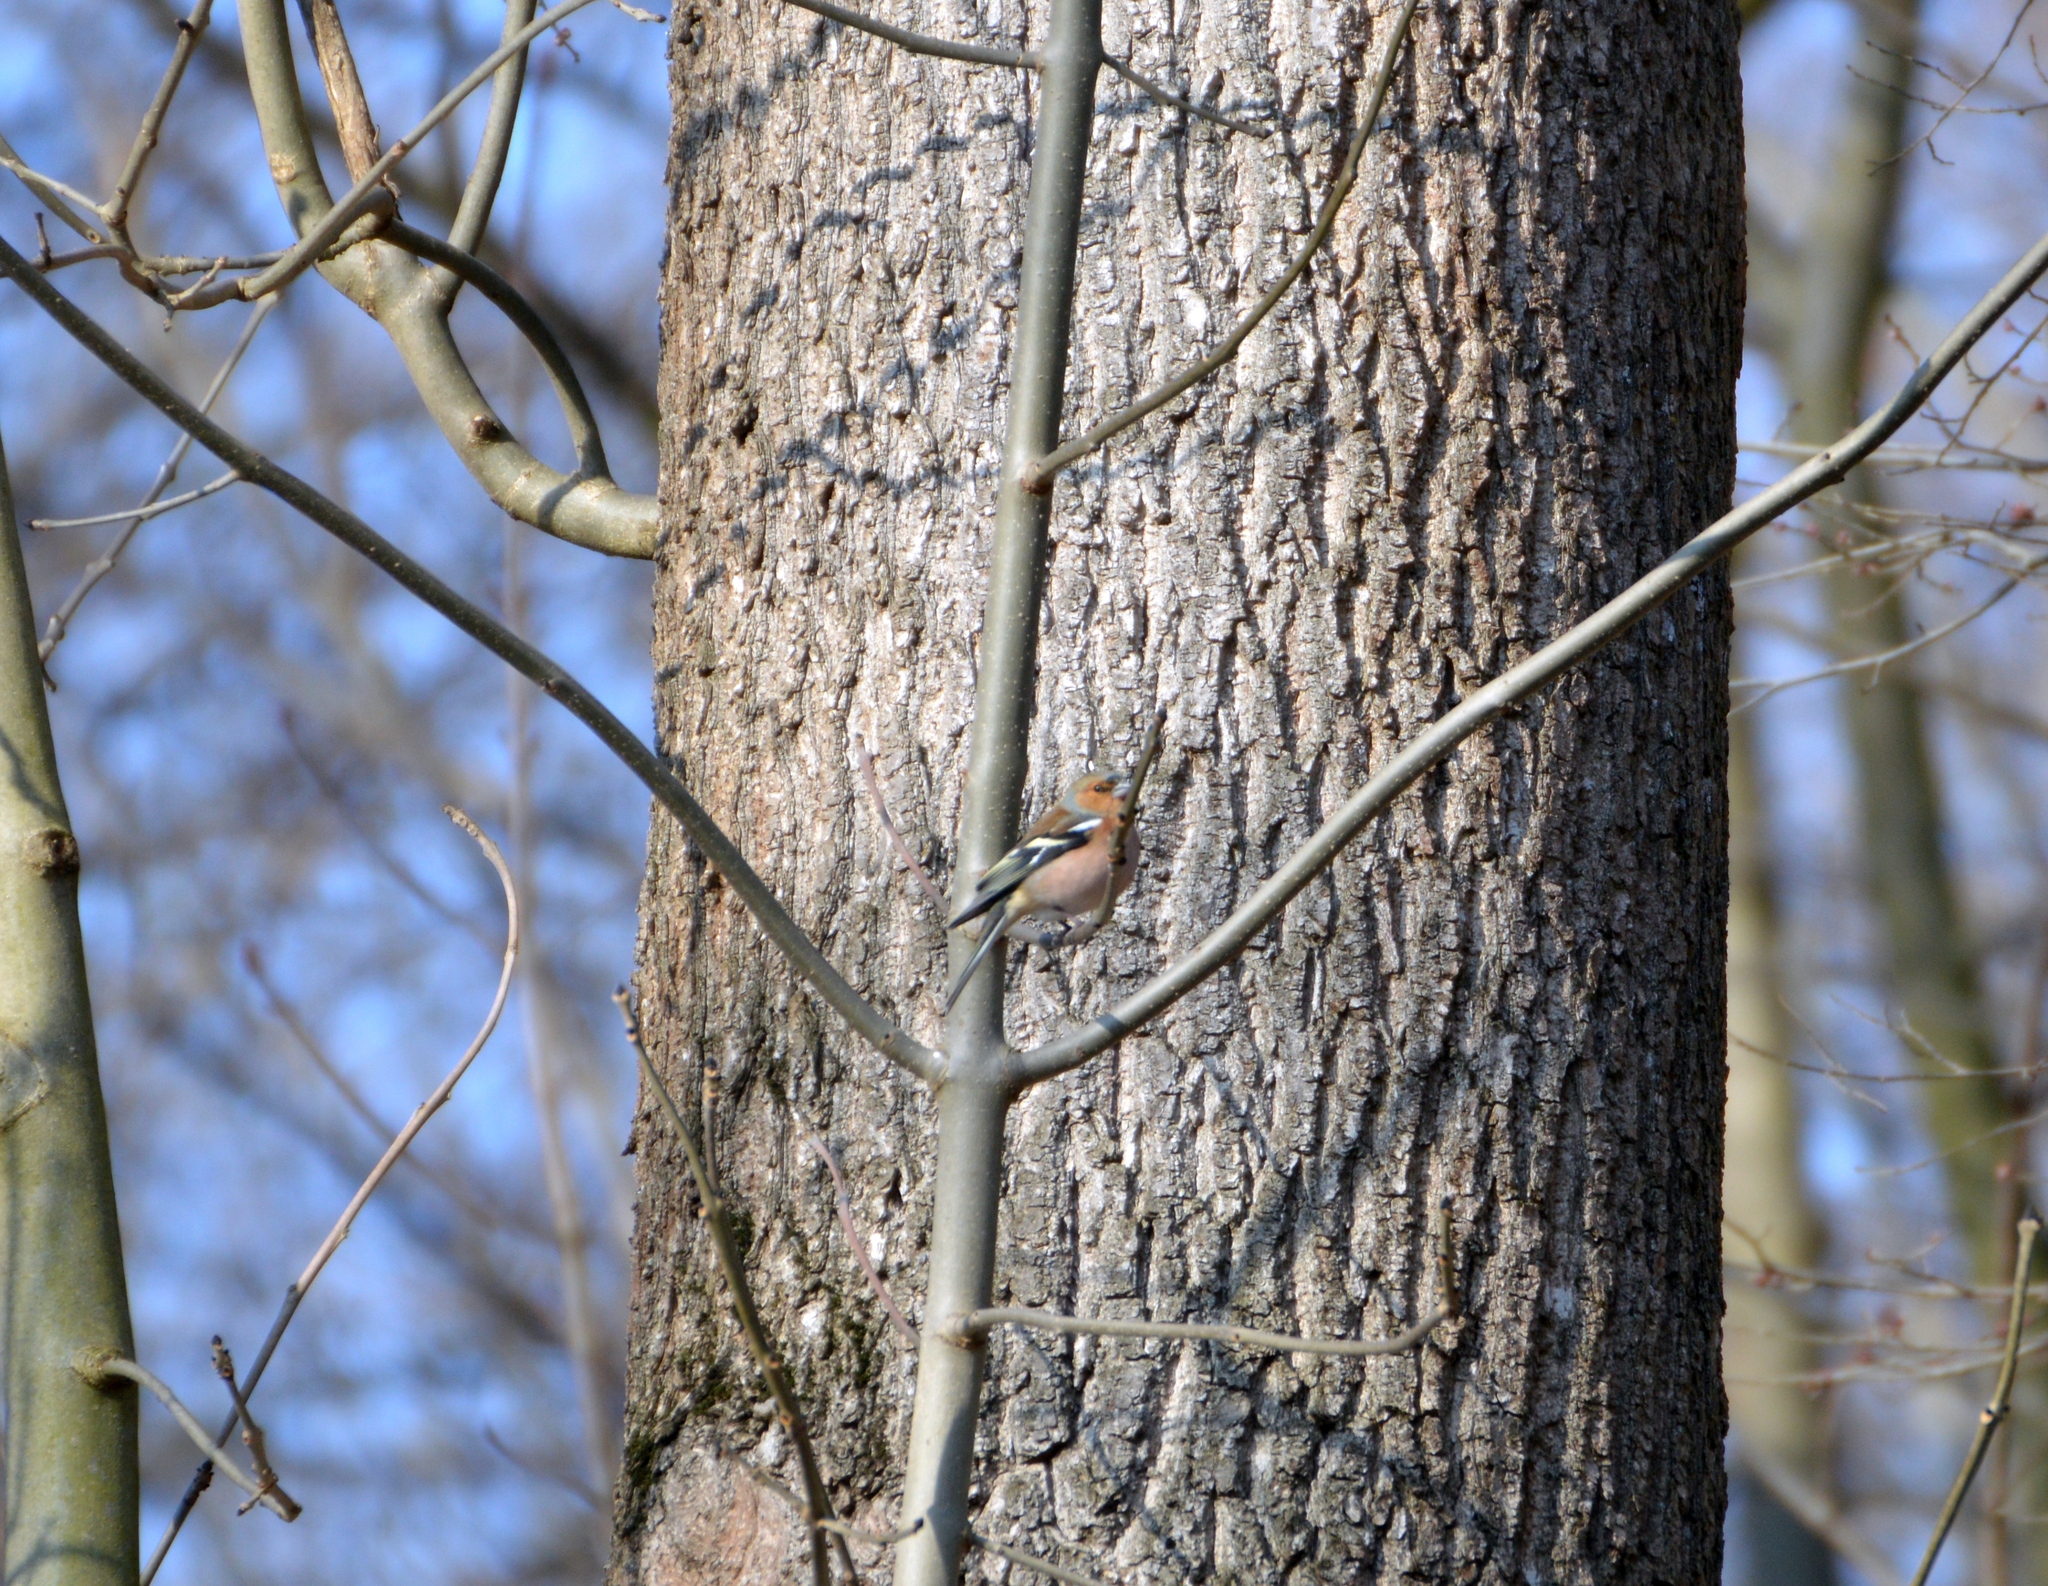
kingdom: Animalia
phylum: Chordata
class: Aves
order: Passeriformes
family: Fringillidae
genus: Fringilla
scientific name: Fringilla coelebs
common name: Common chaffinch
